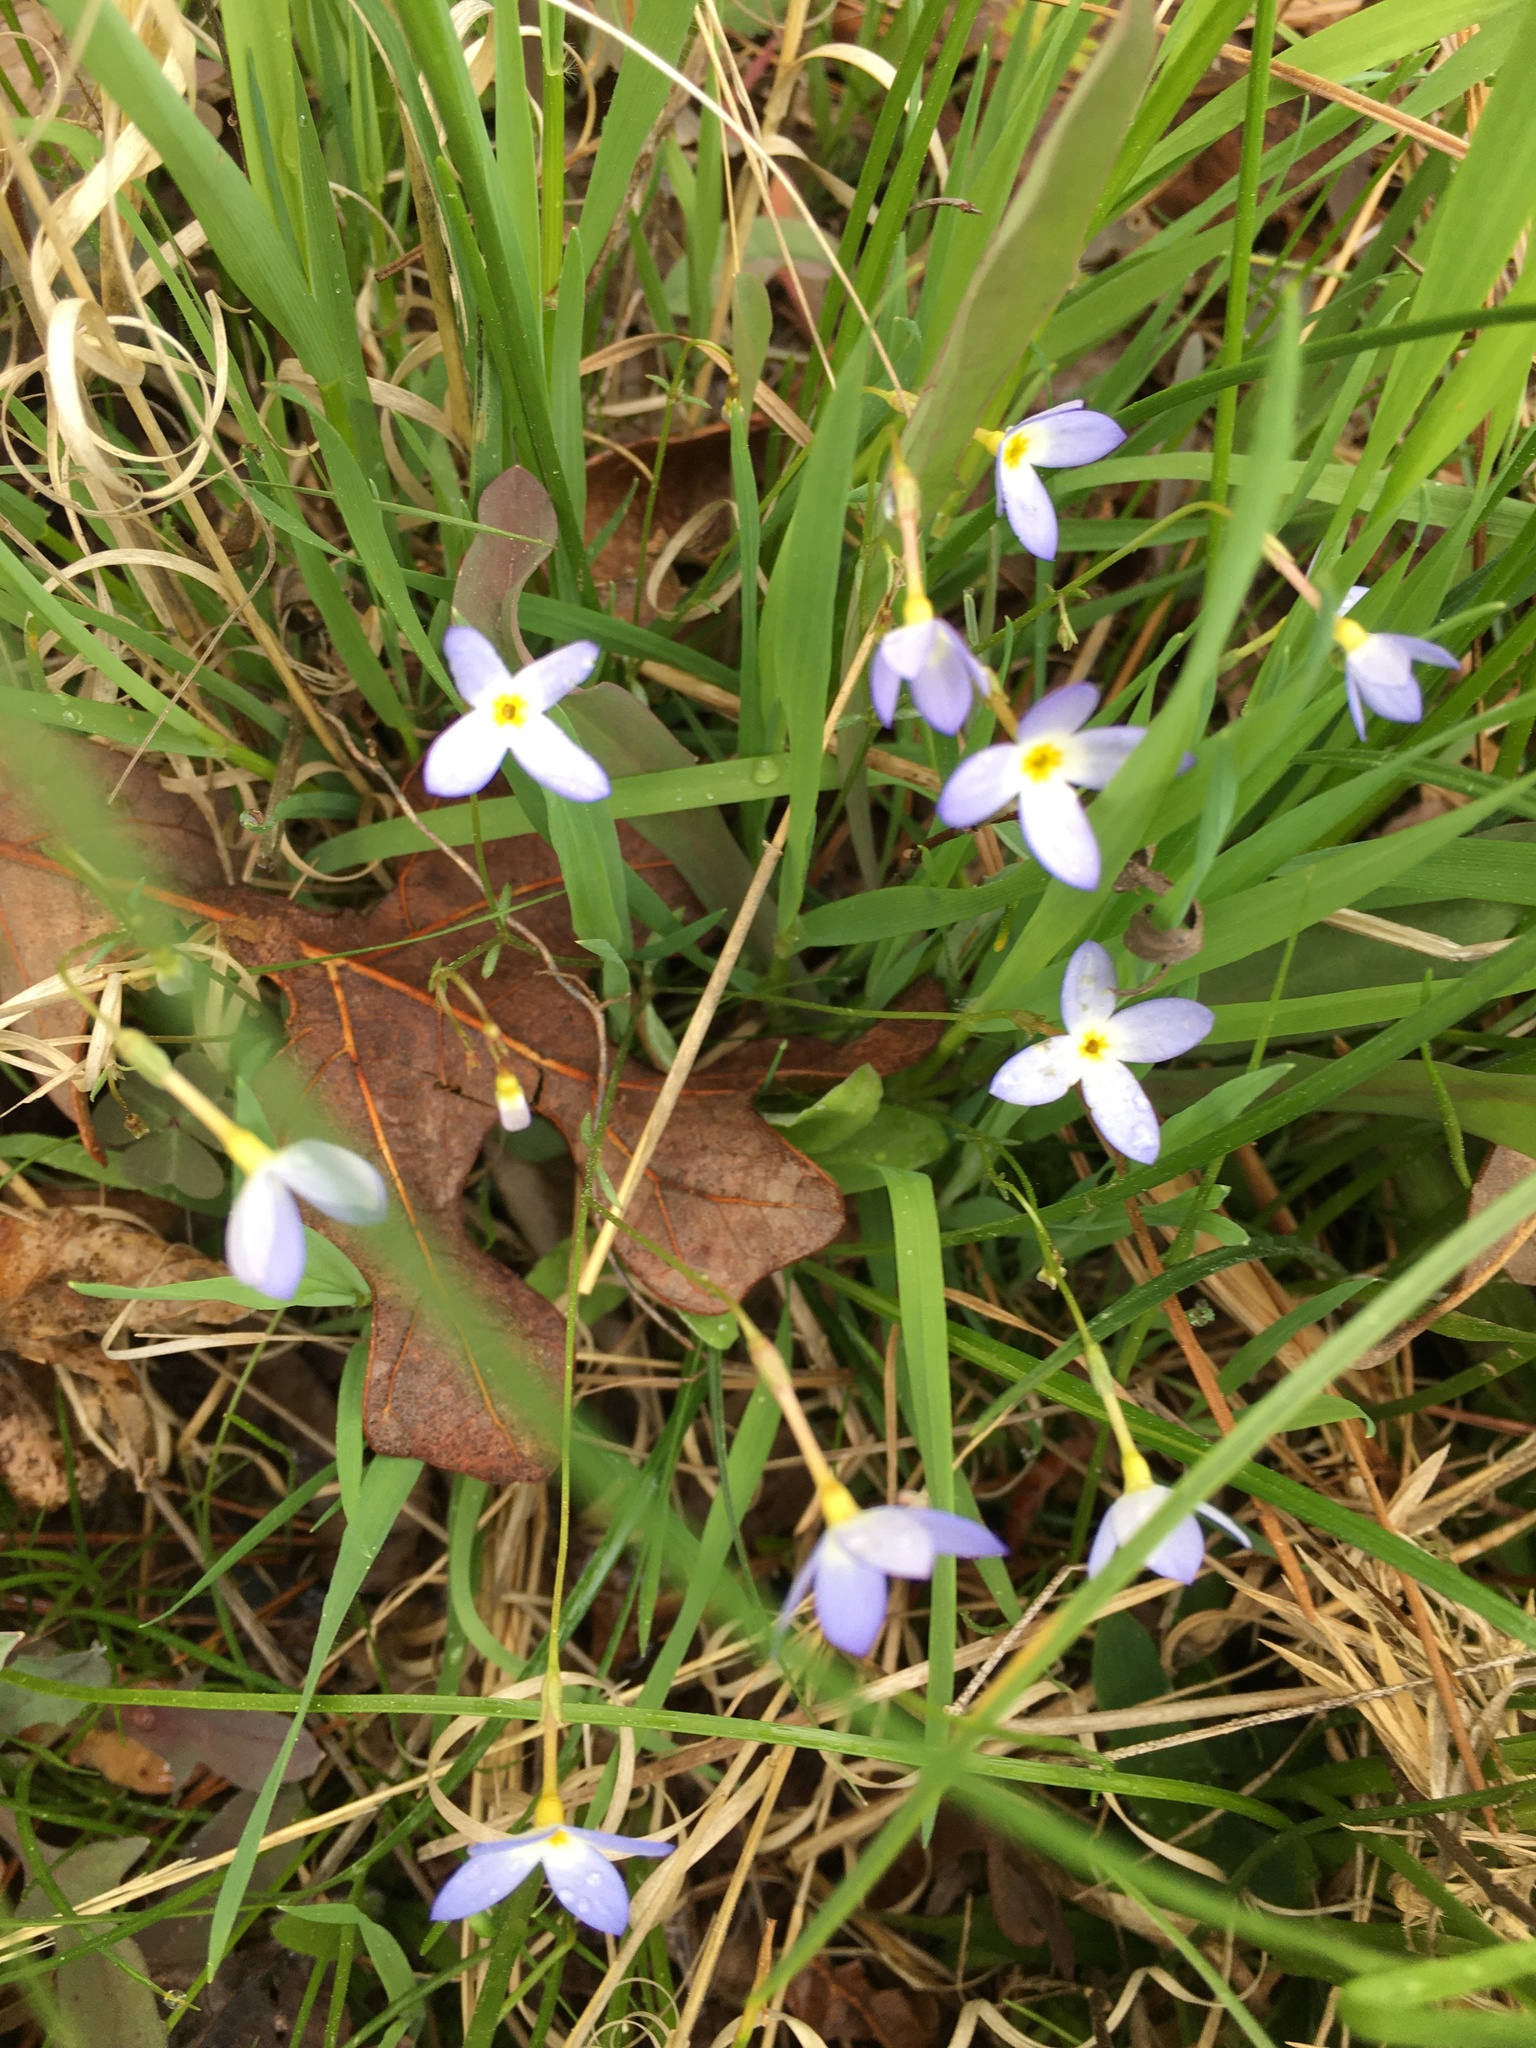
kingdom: Plantae
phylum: Tracheophyta
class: Magnoliopsida
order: Gentianales
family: Rubiaceae
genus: Houstonia
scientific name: Houstonia caerulea
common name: Bluets
